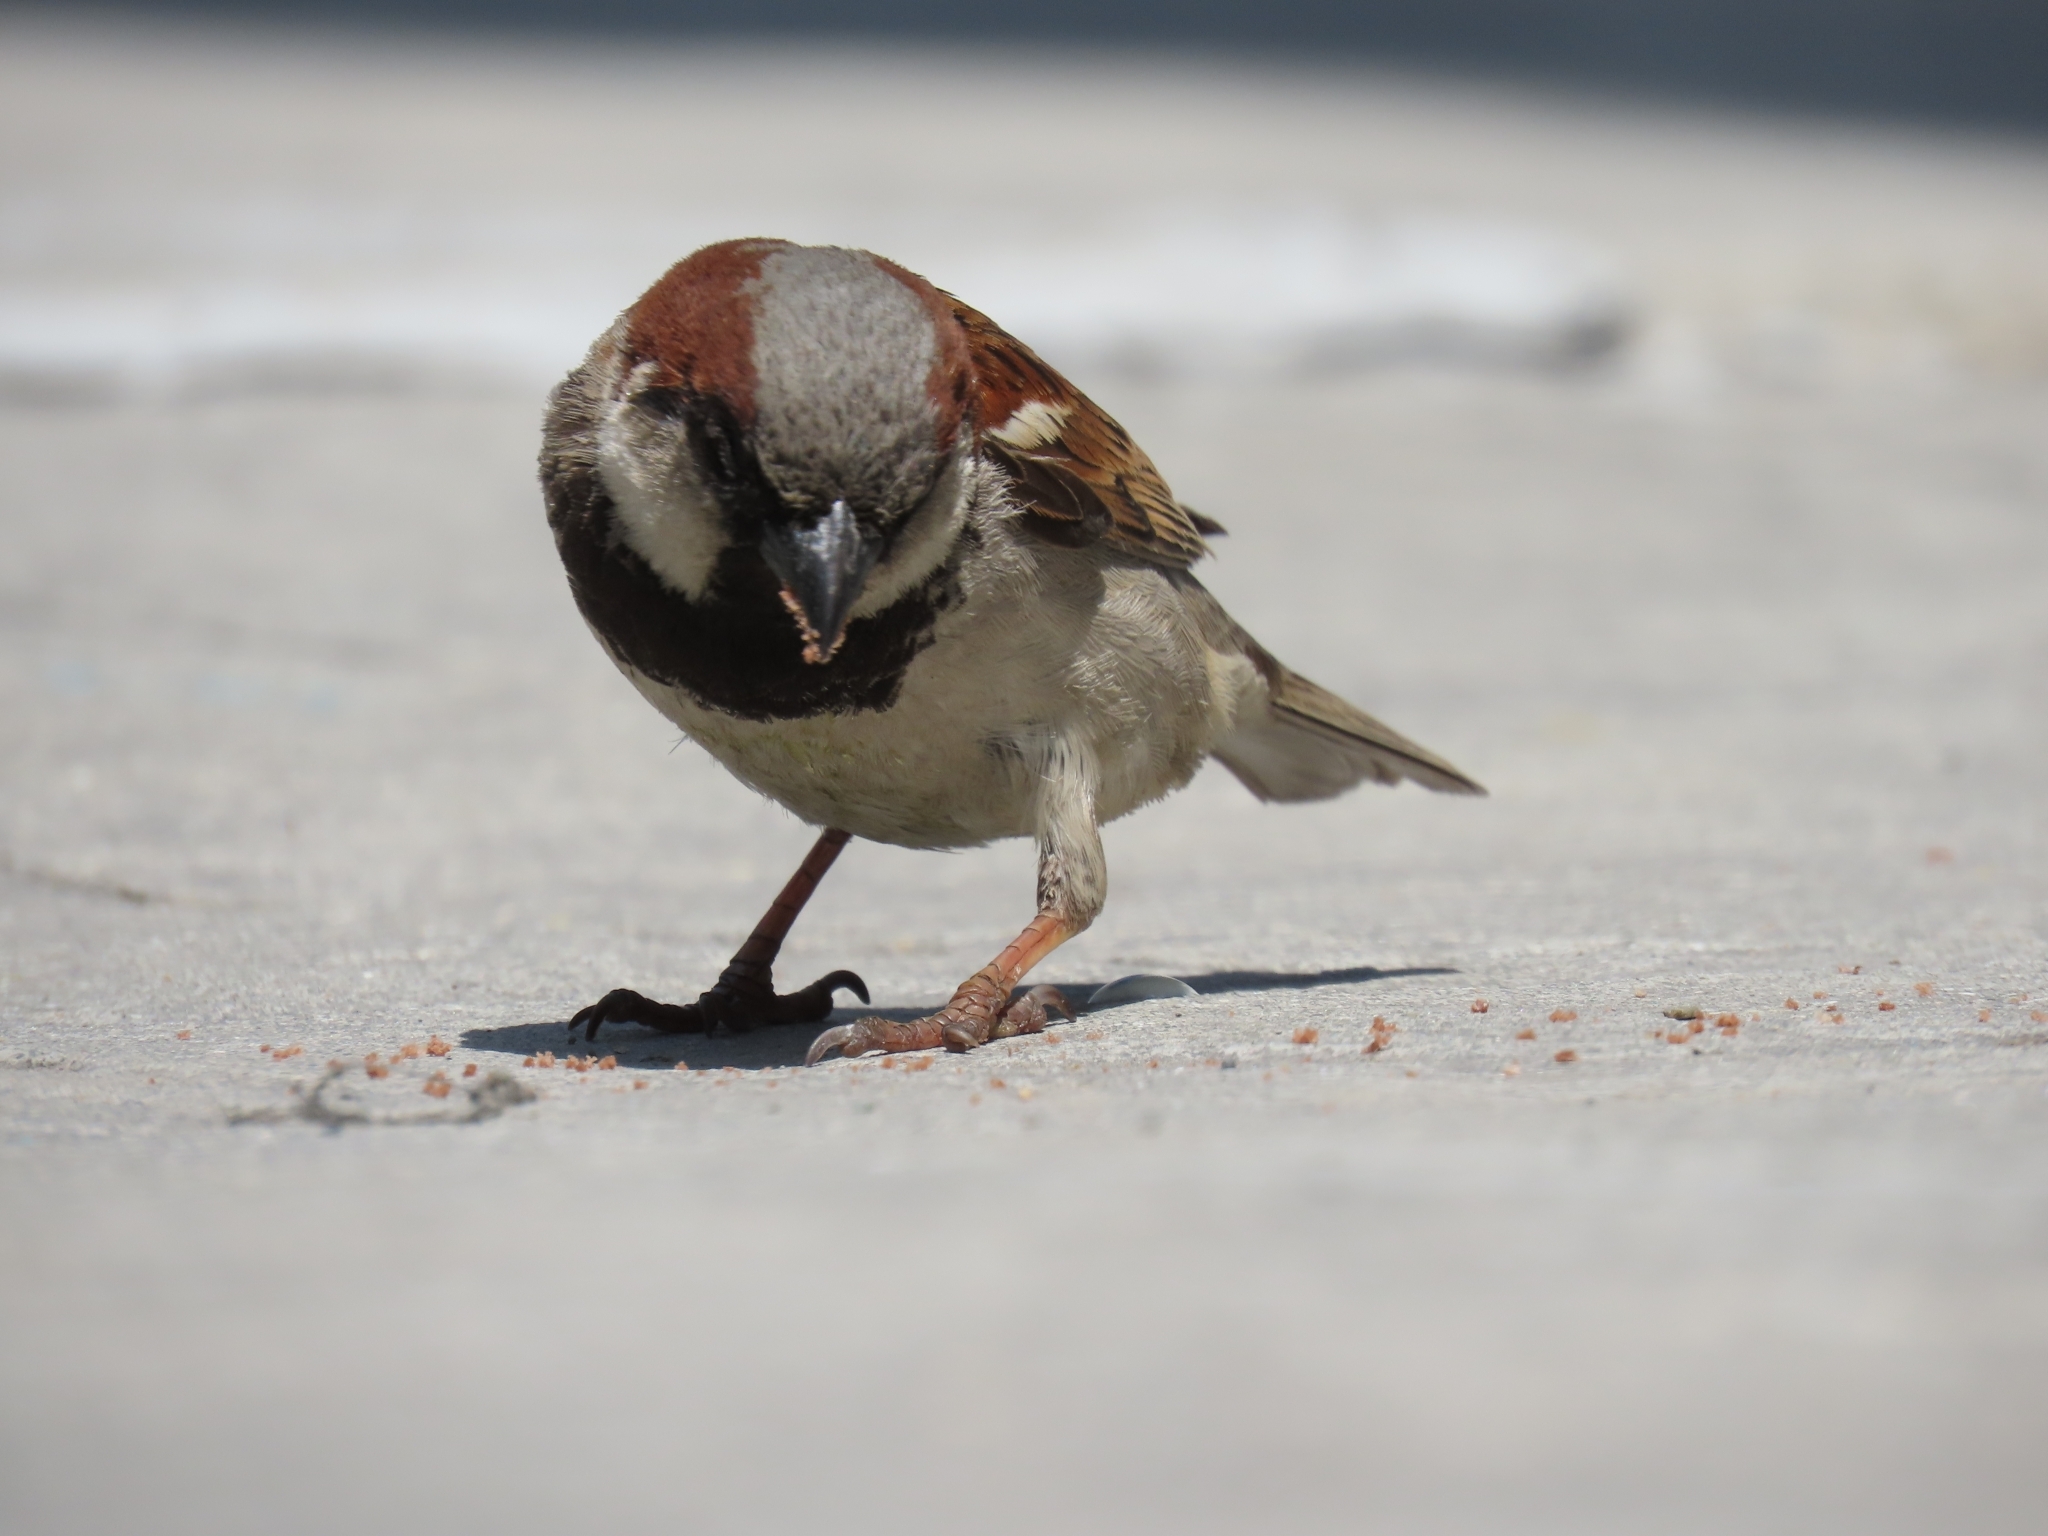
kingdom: Animalia
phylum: Chordata
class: Aves
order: Passeriformes
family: Passeridae
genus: Passer
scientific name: Passer domesticus
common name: House sparrow
